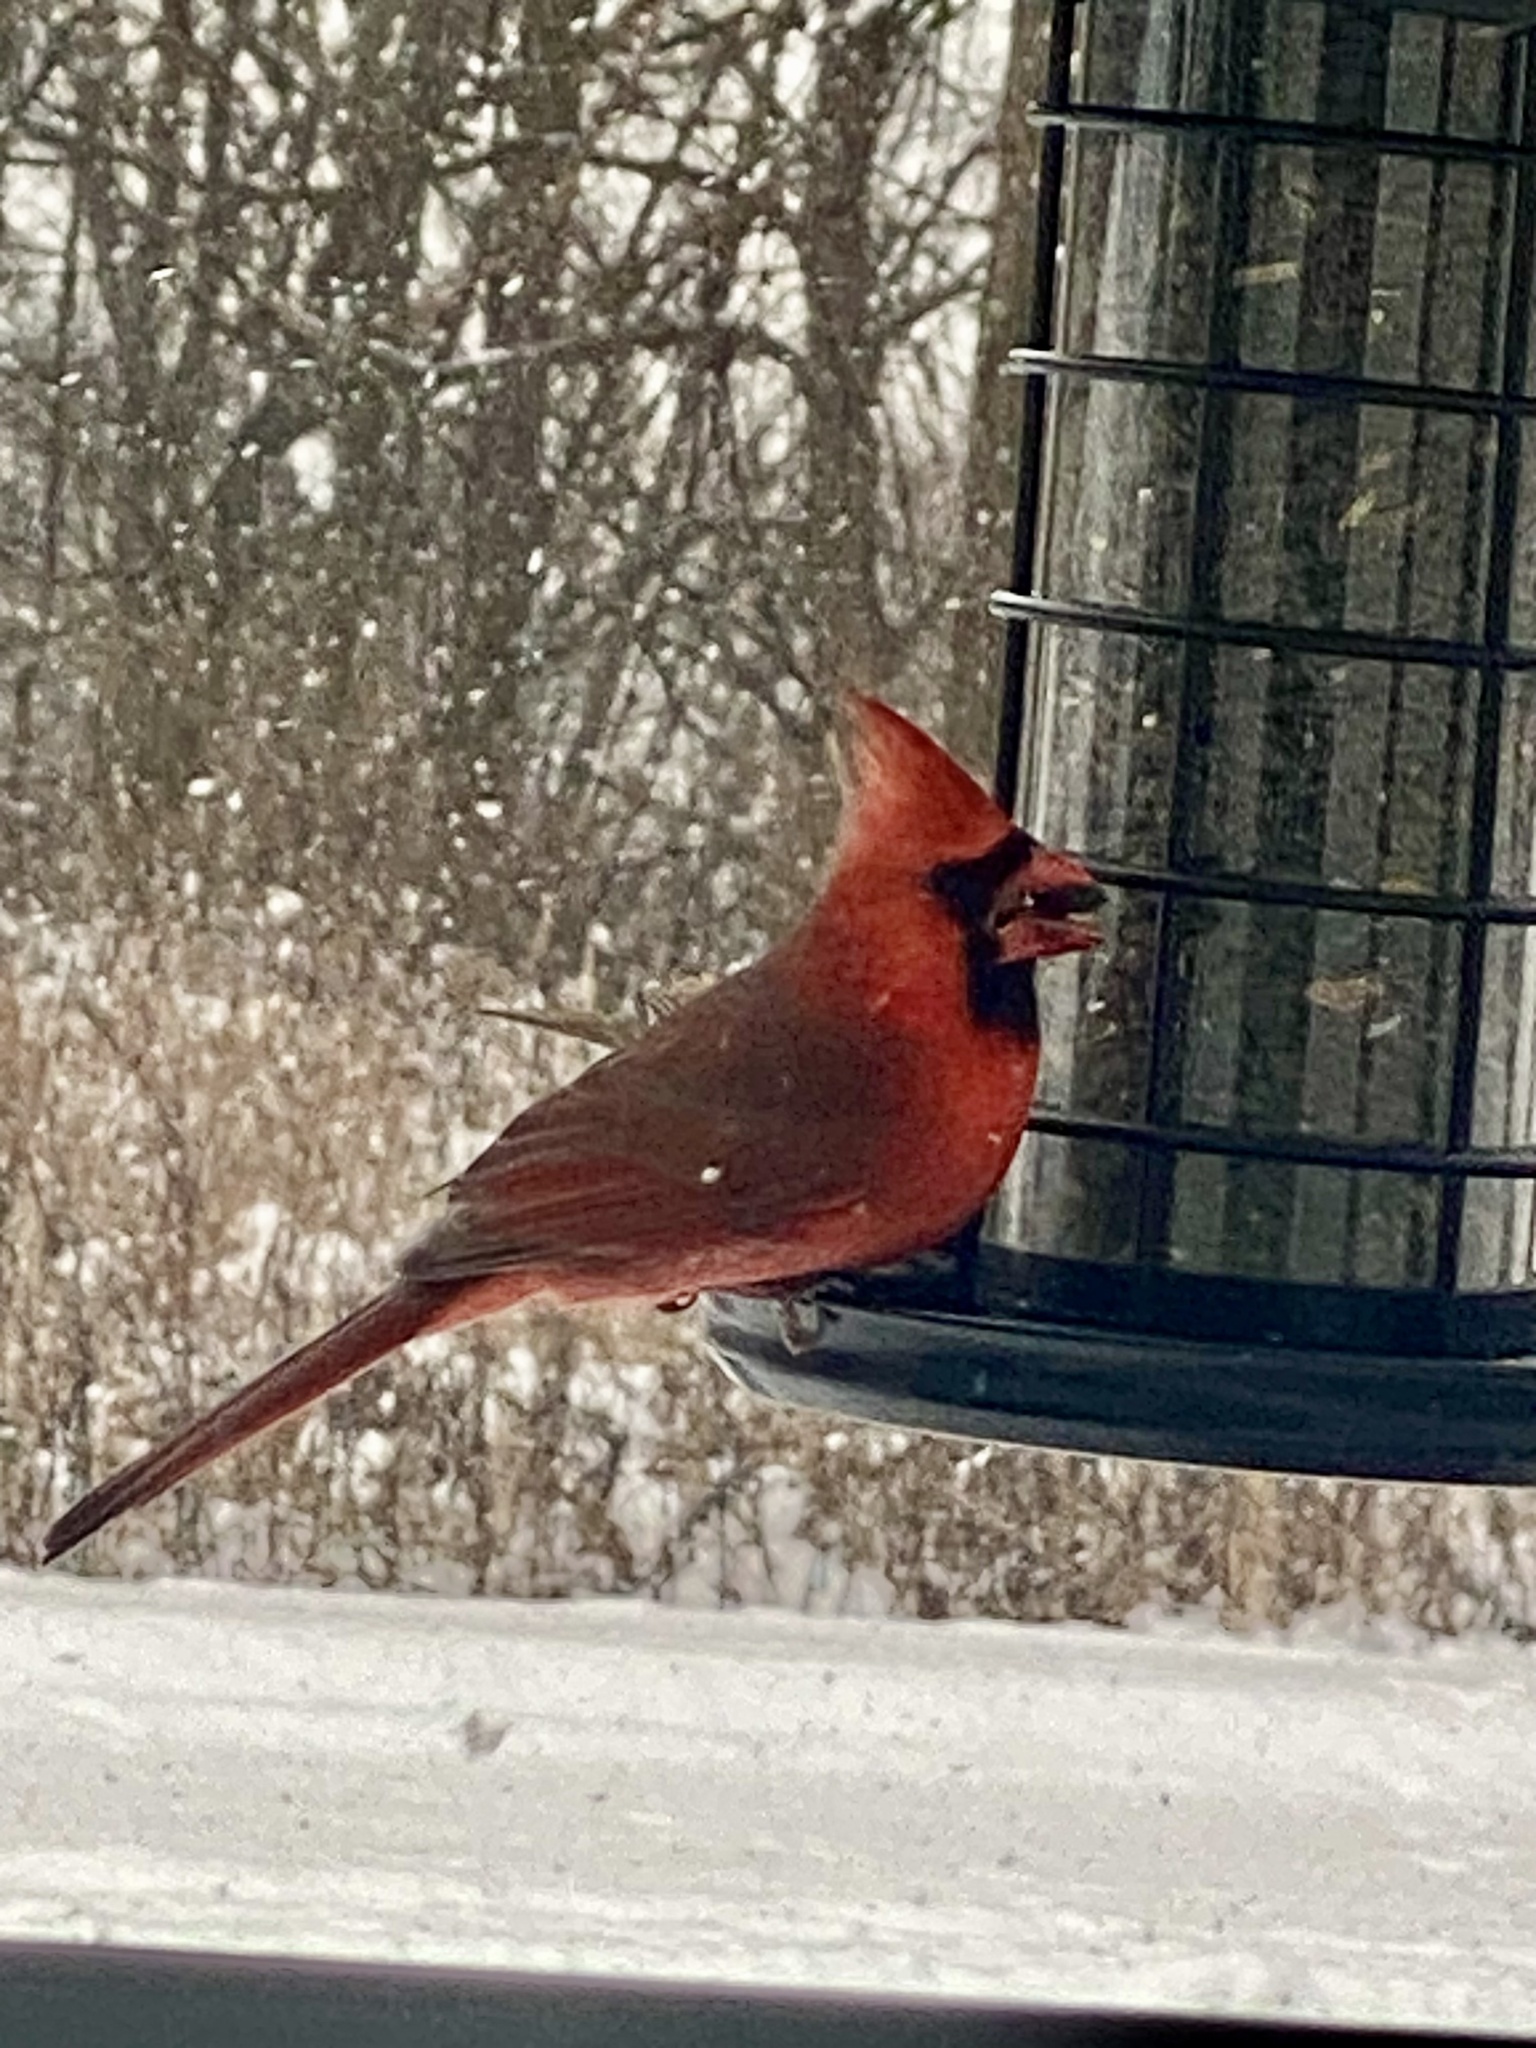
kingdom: Animalia
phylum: Chordata
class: Aves
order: Passeriformes
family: Cardinalidae
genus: Cardinalis
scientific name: Cardinalis cardinalis
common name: Northern cardinal
